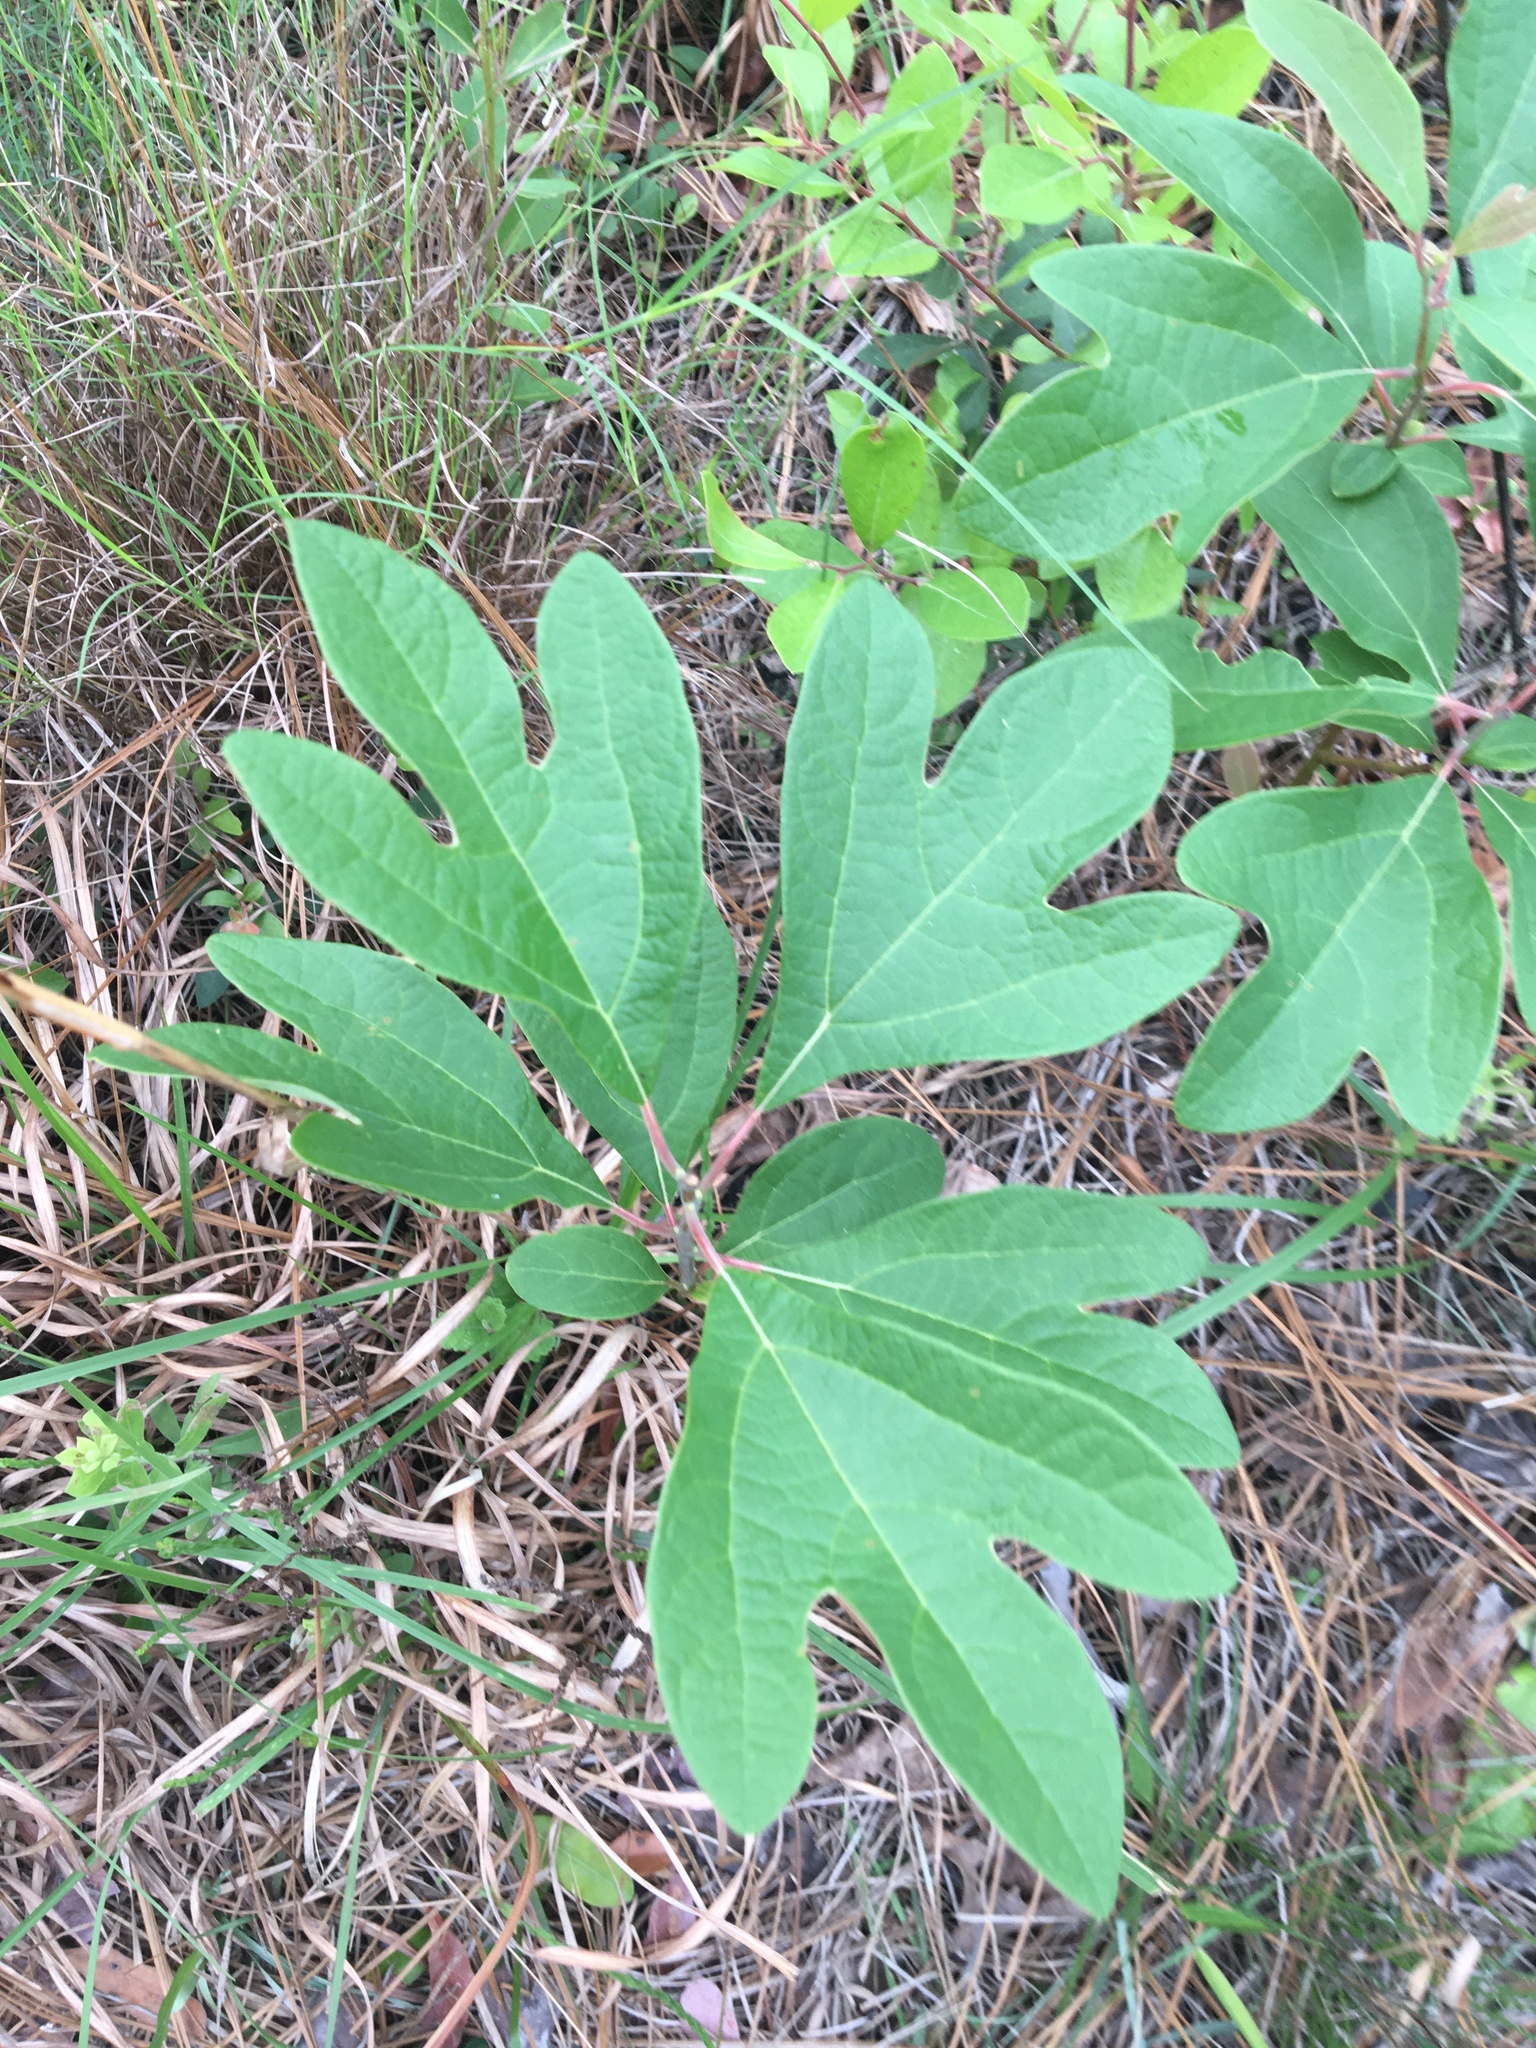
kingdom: Plantae
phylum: Tracheophyta
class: Magnoliopsida
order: Laurales
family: Lauraceae
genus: Sassafras
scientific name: Sassafras albidum
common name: Sassafras
